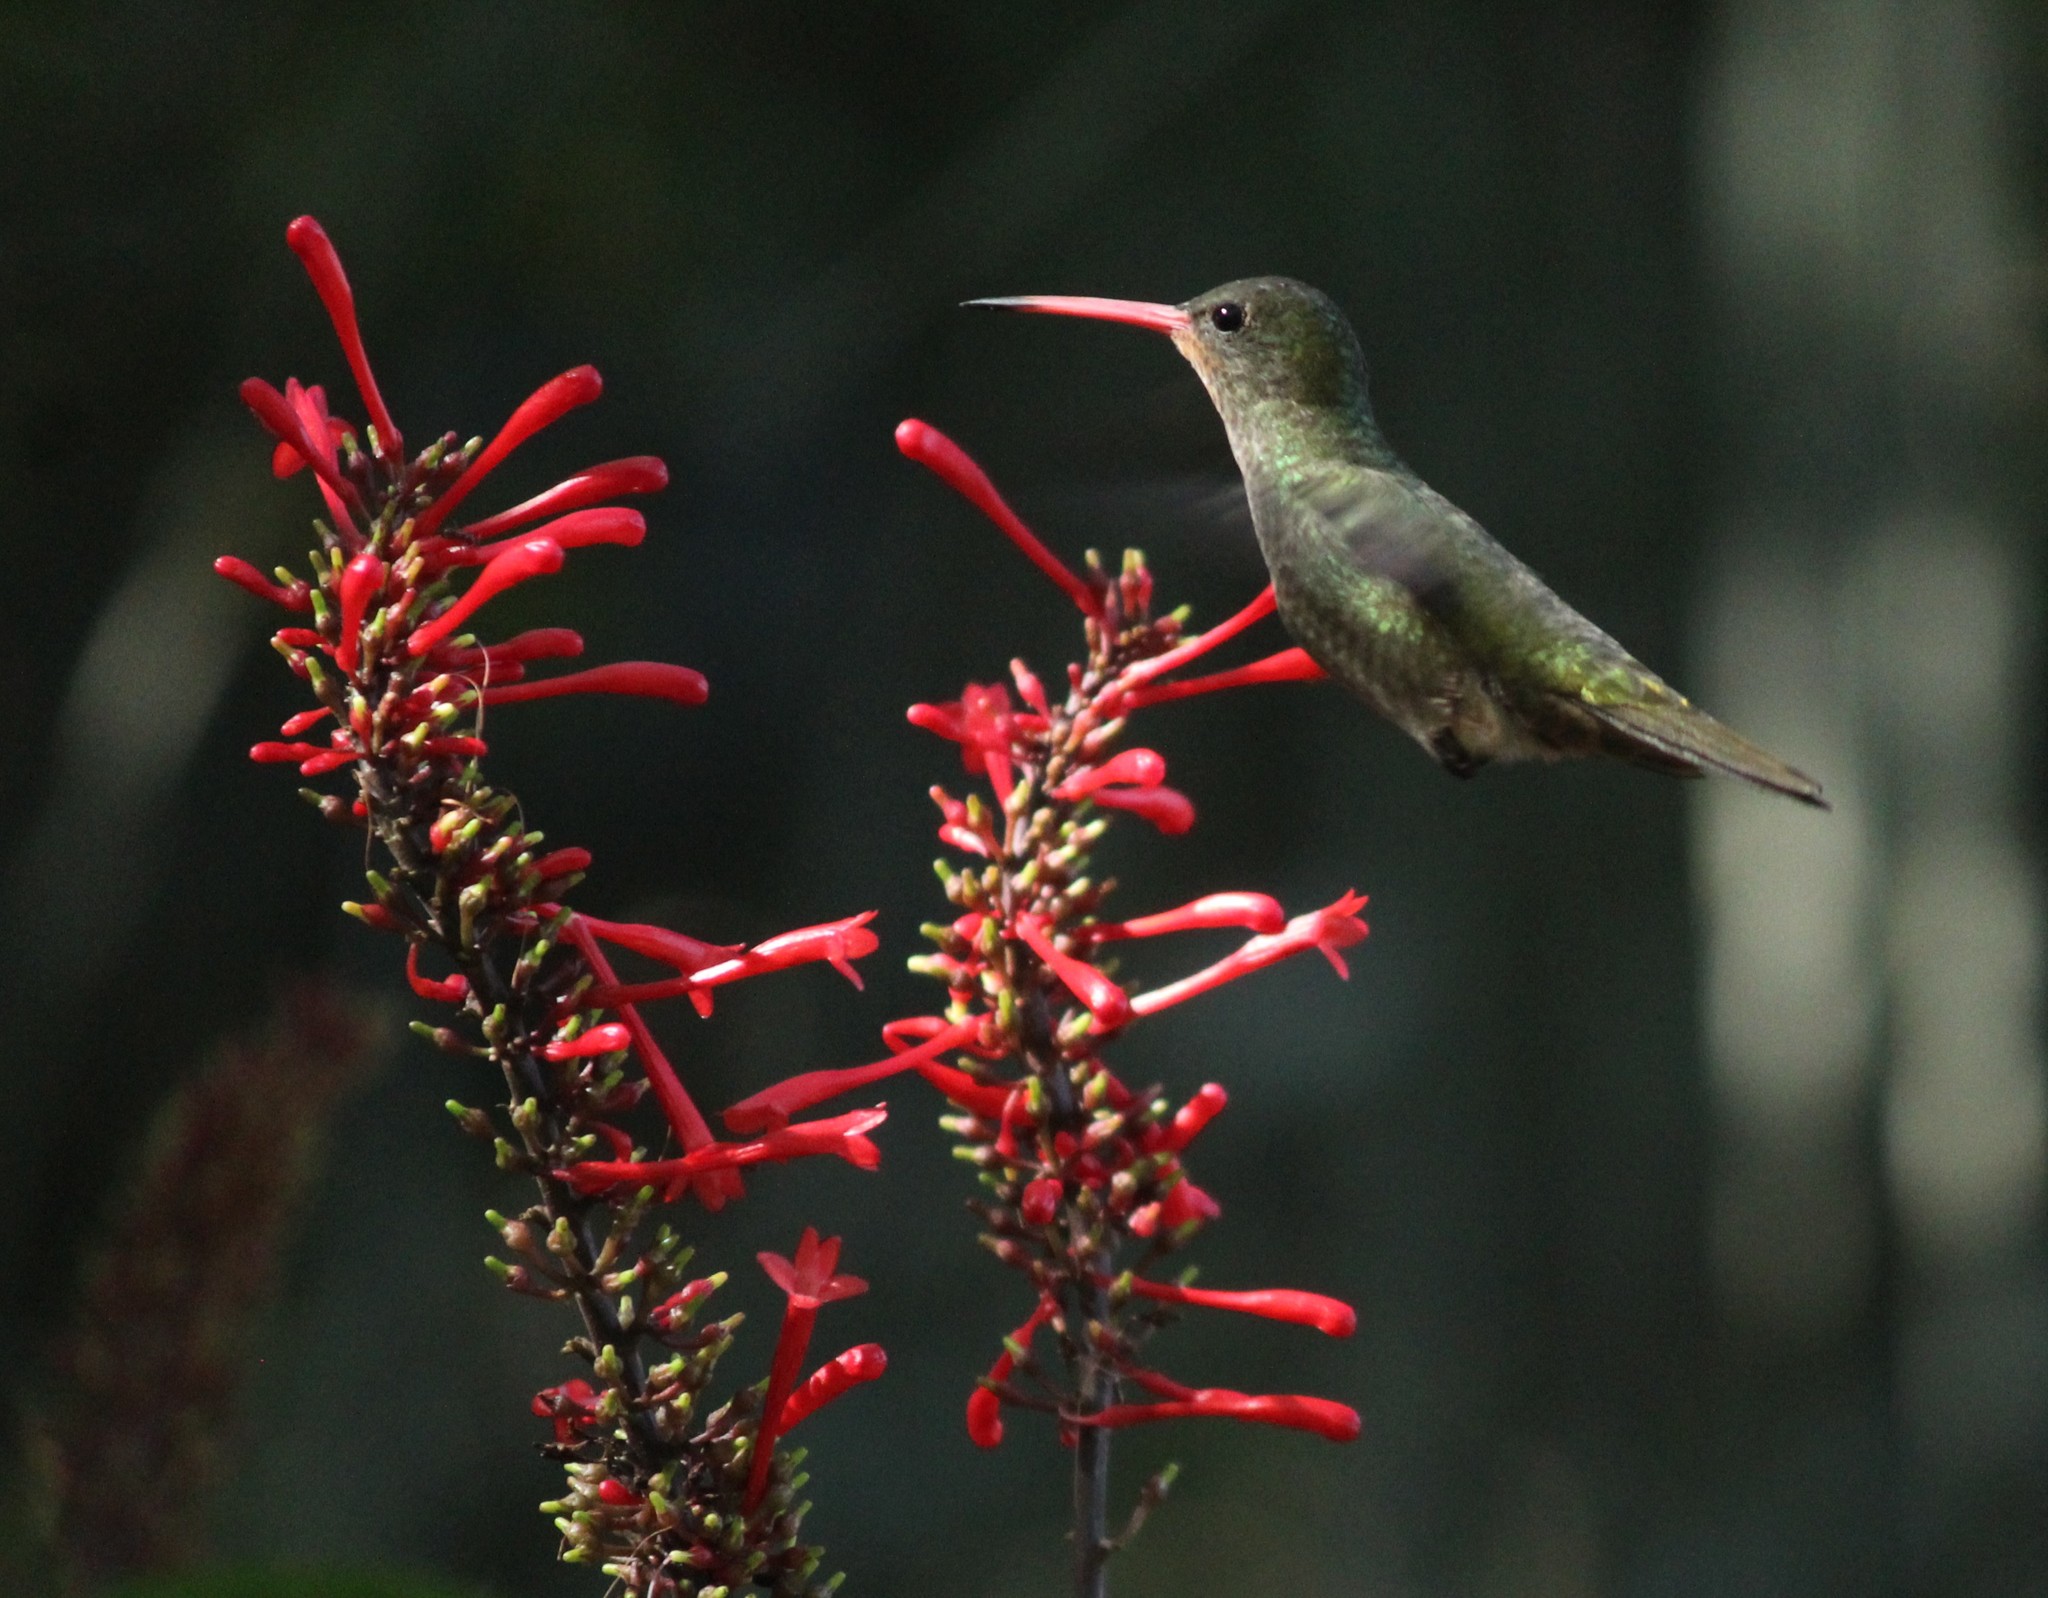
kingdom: Animalia
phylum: Chordata
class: Aves
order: Apodiformes
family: Trochilidae
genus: Hylocharis
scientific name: Hylocharis chrysura
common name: Gilded sapphire
